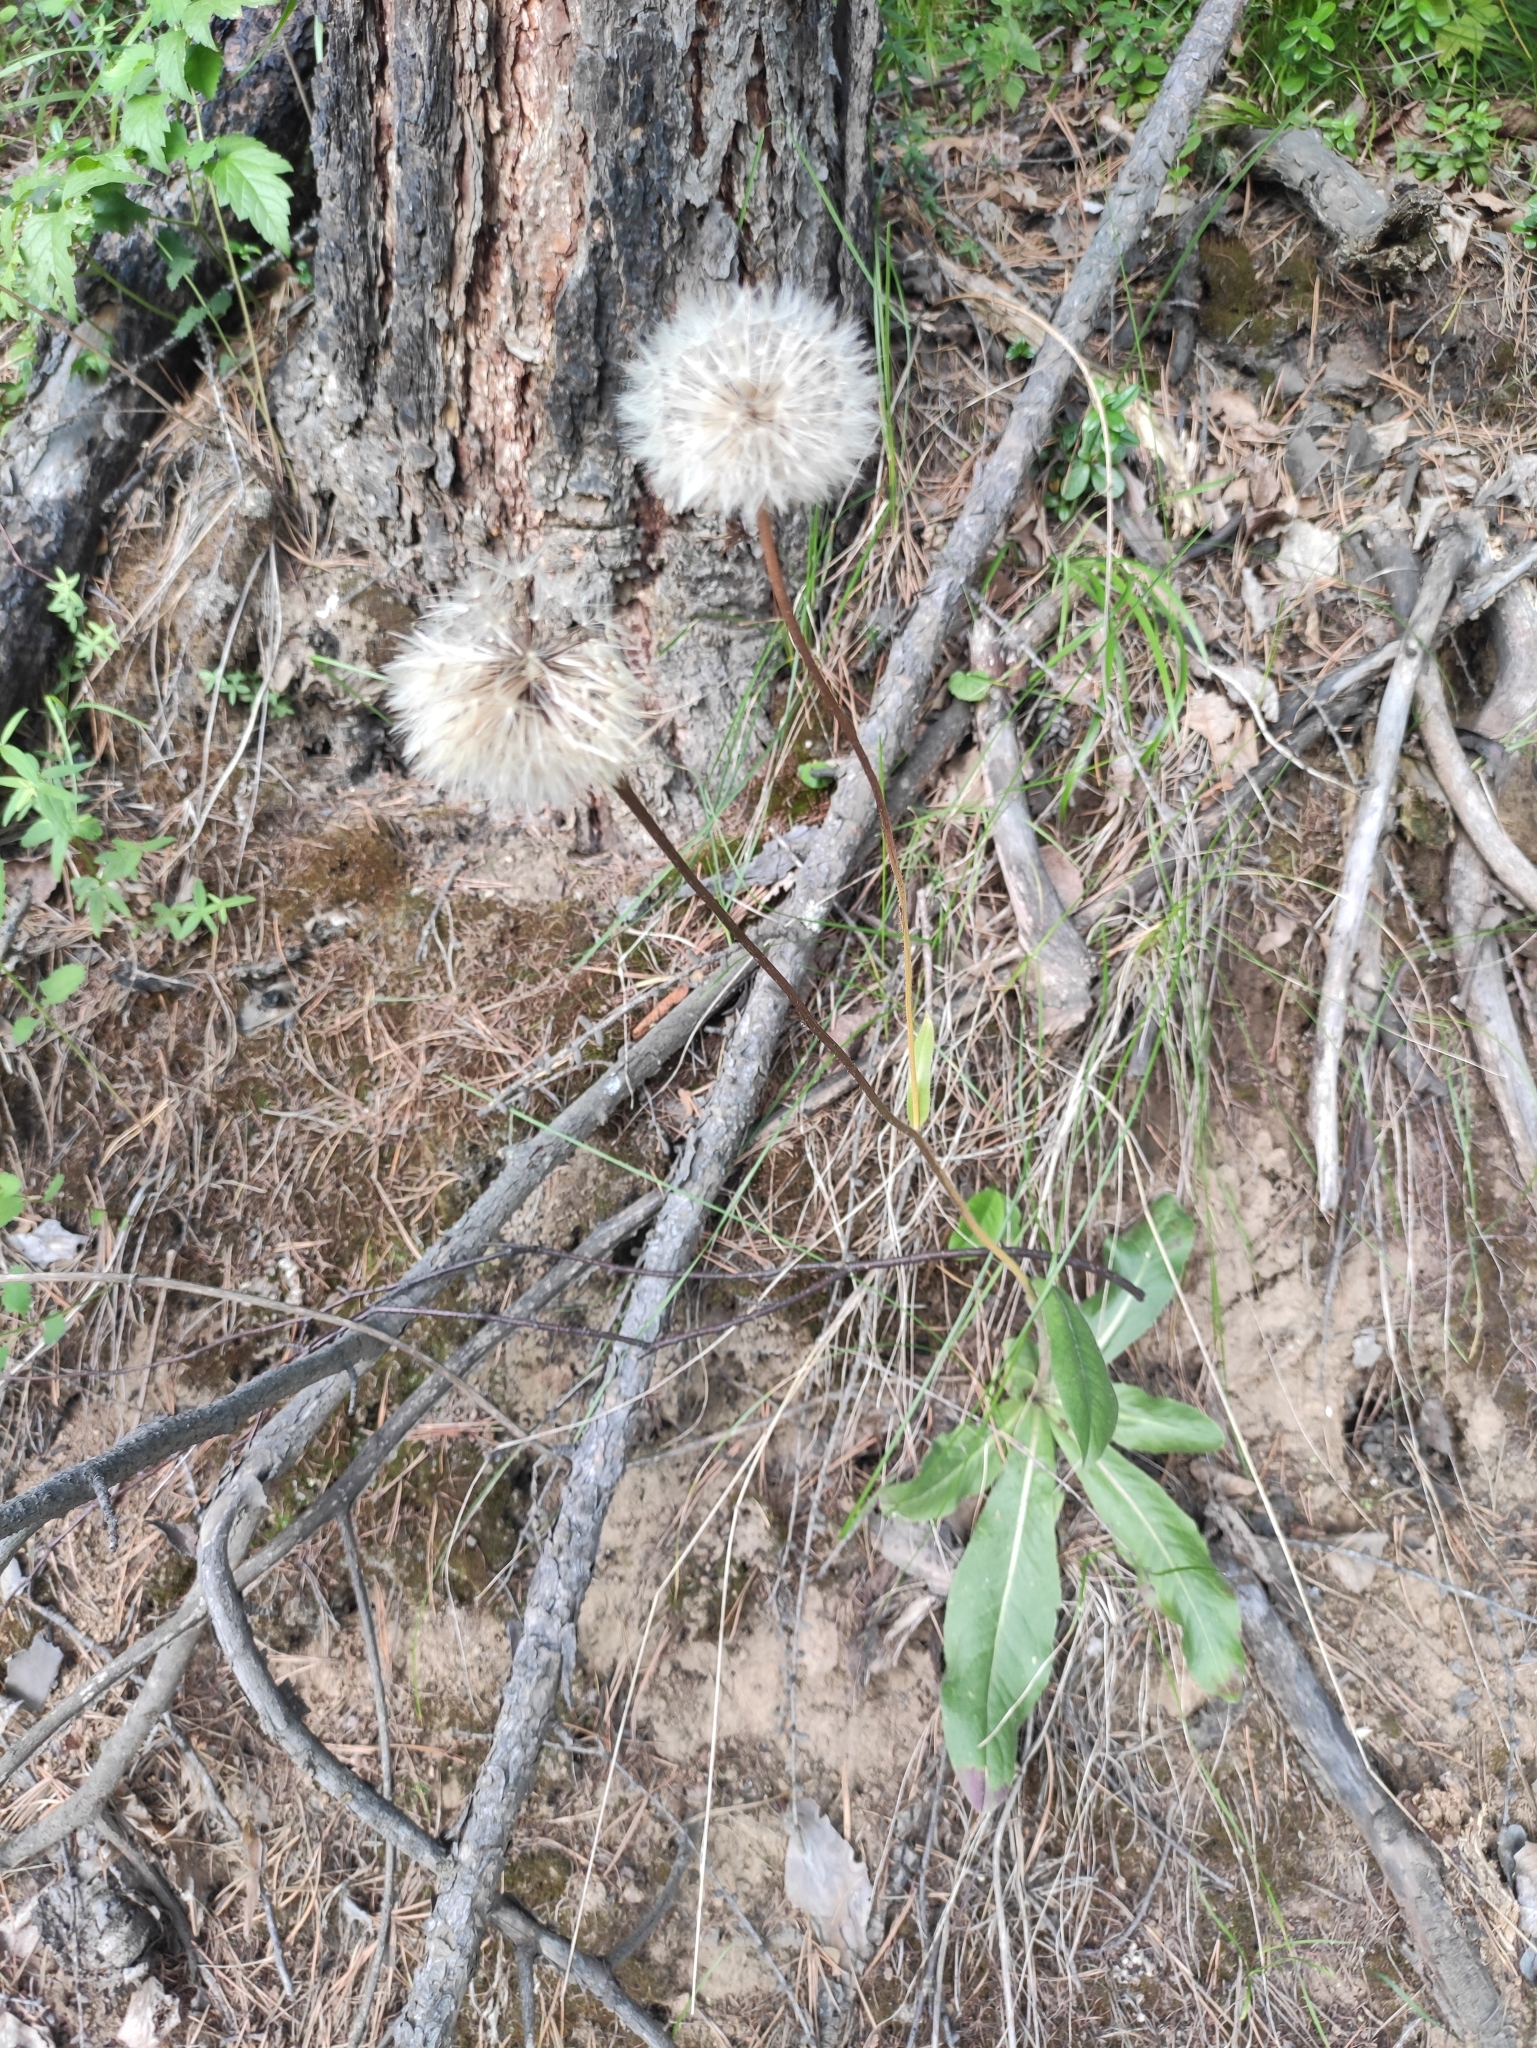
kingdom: Plantae
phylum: Tracheophyta
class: Magnoliopsida
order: Asterales
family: Asteraceae
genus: Trommsdorffia
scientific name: Trommsdorffia maculata
